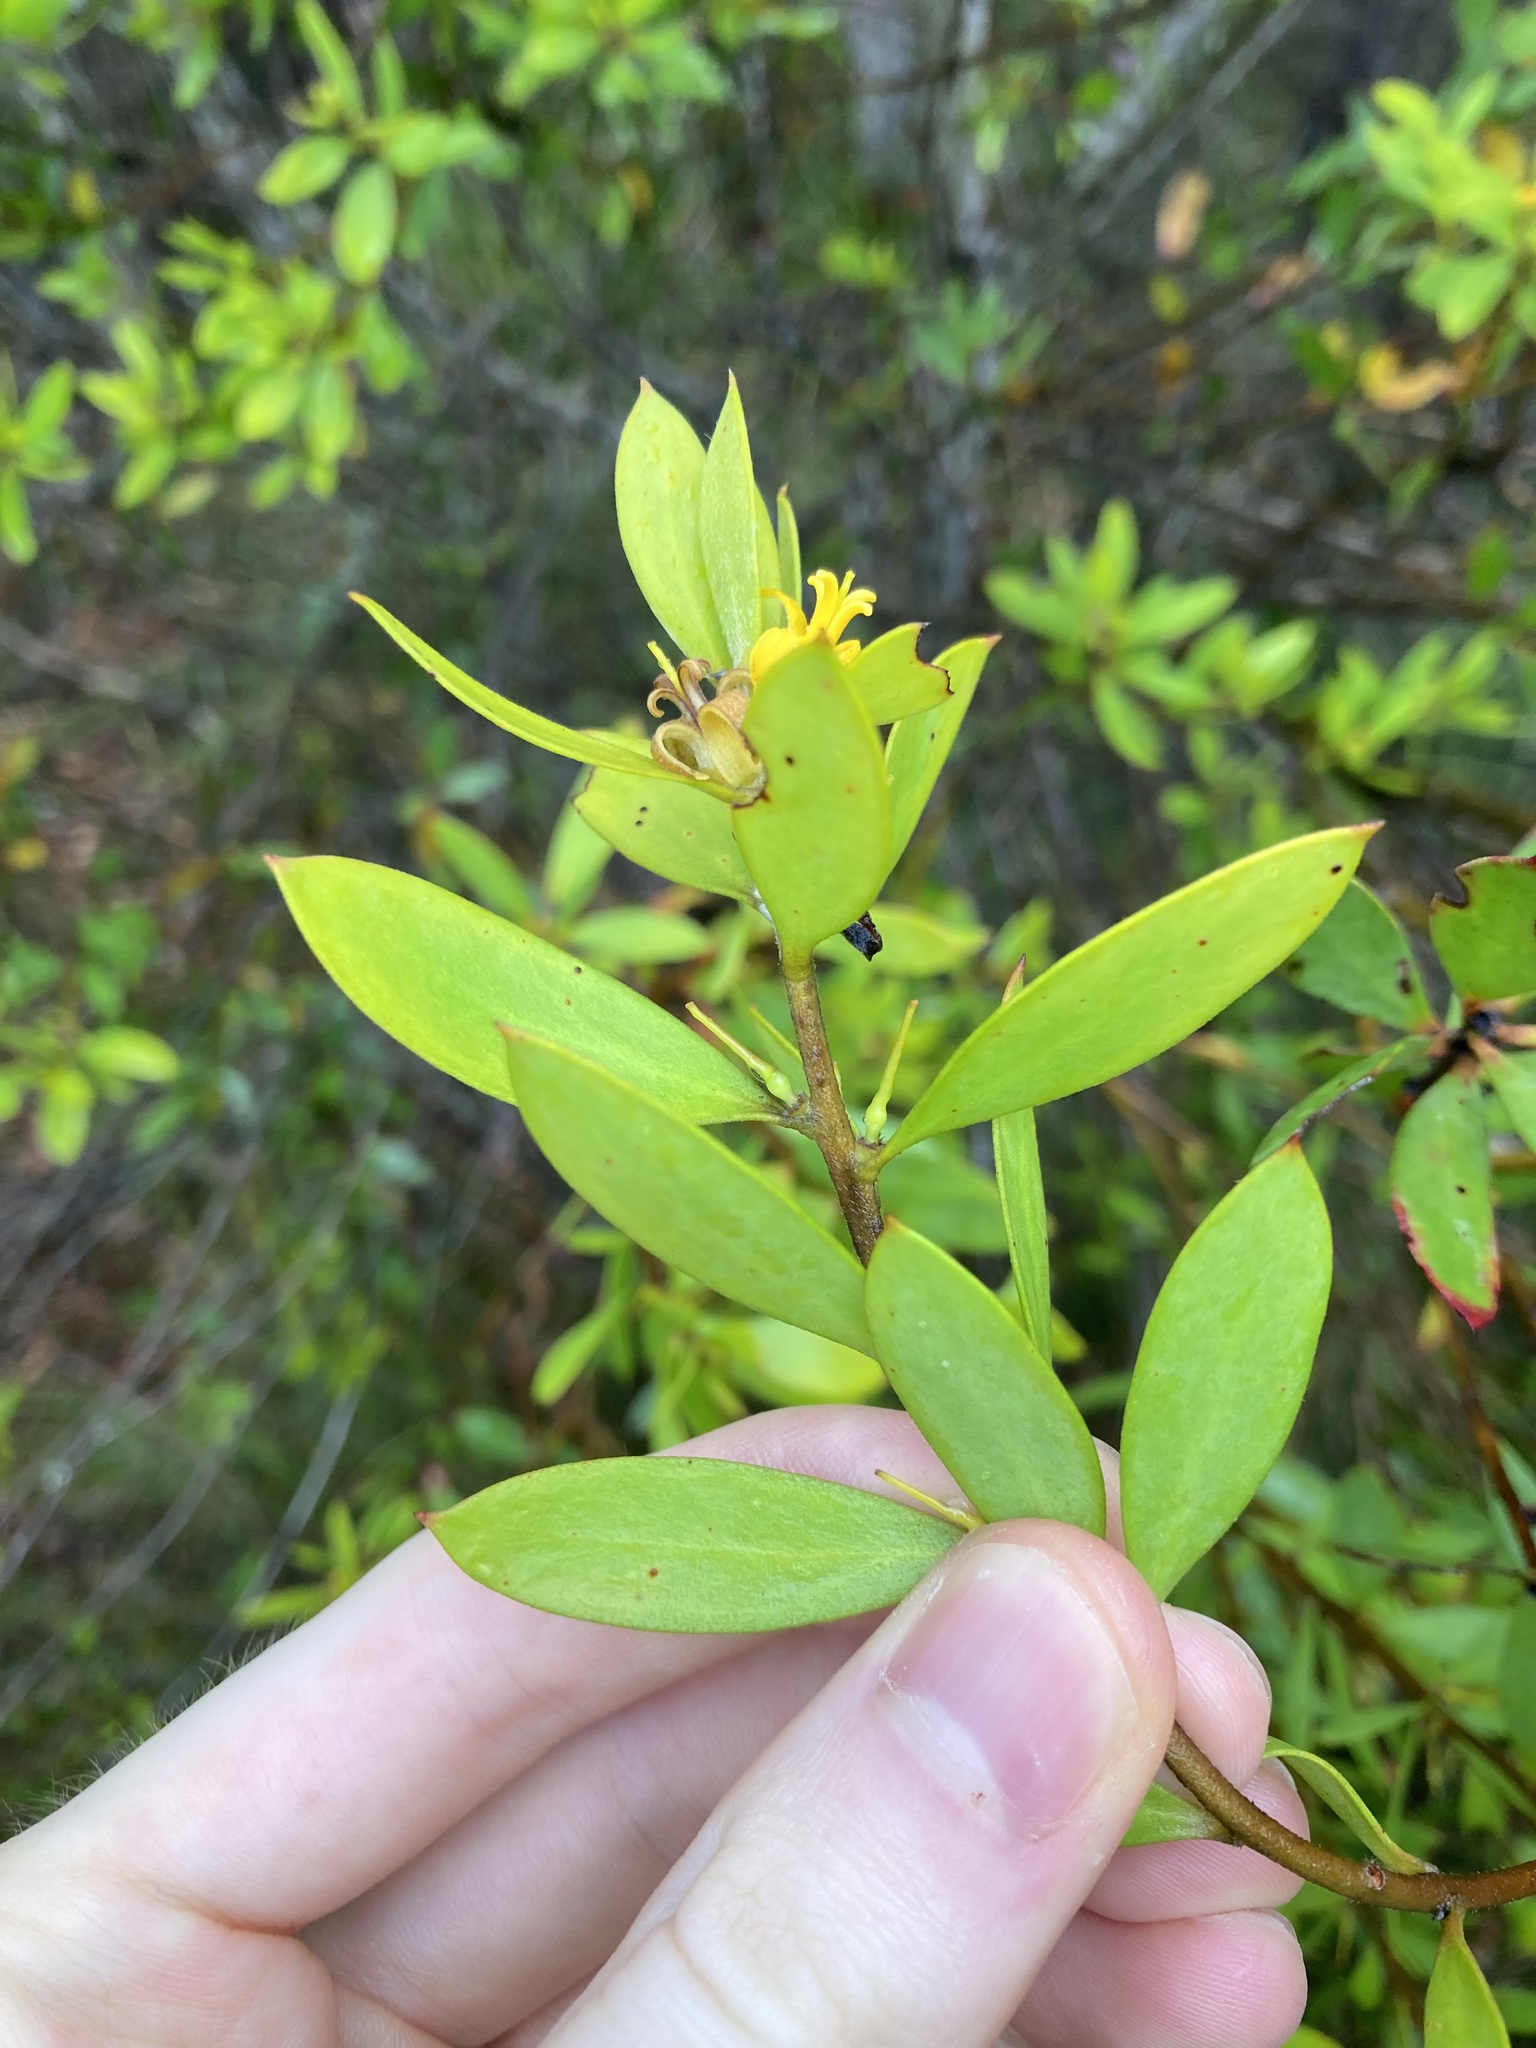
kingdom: Plantae
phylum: Tracheophyta
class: Magnoliopsida
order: Proteales
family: Proteaceae
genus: Persoonia
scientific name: Persoonia lanceolata
